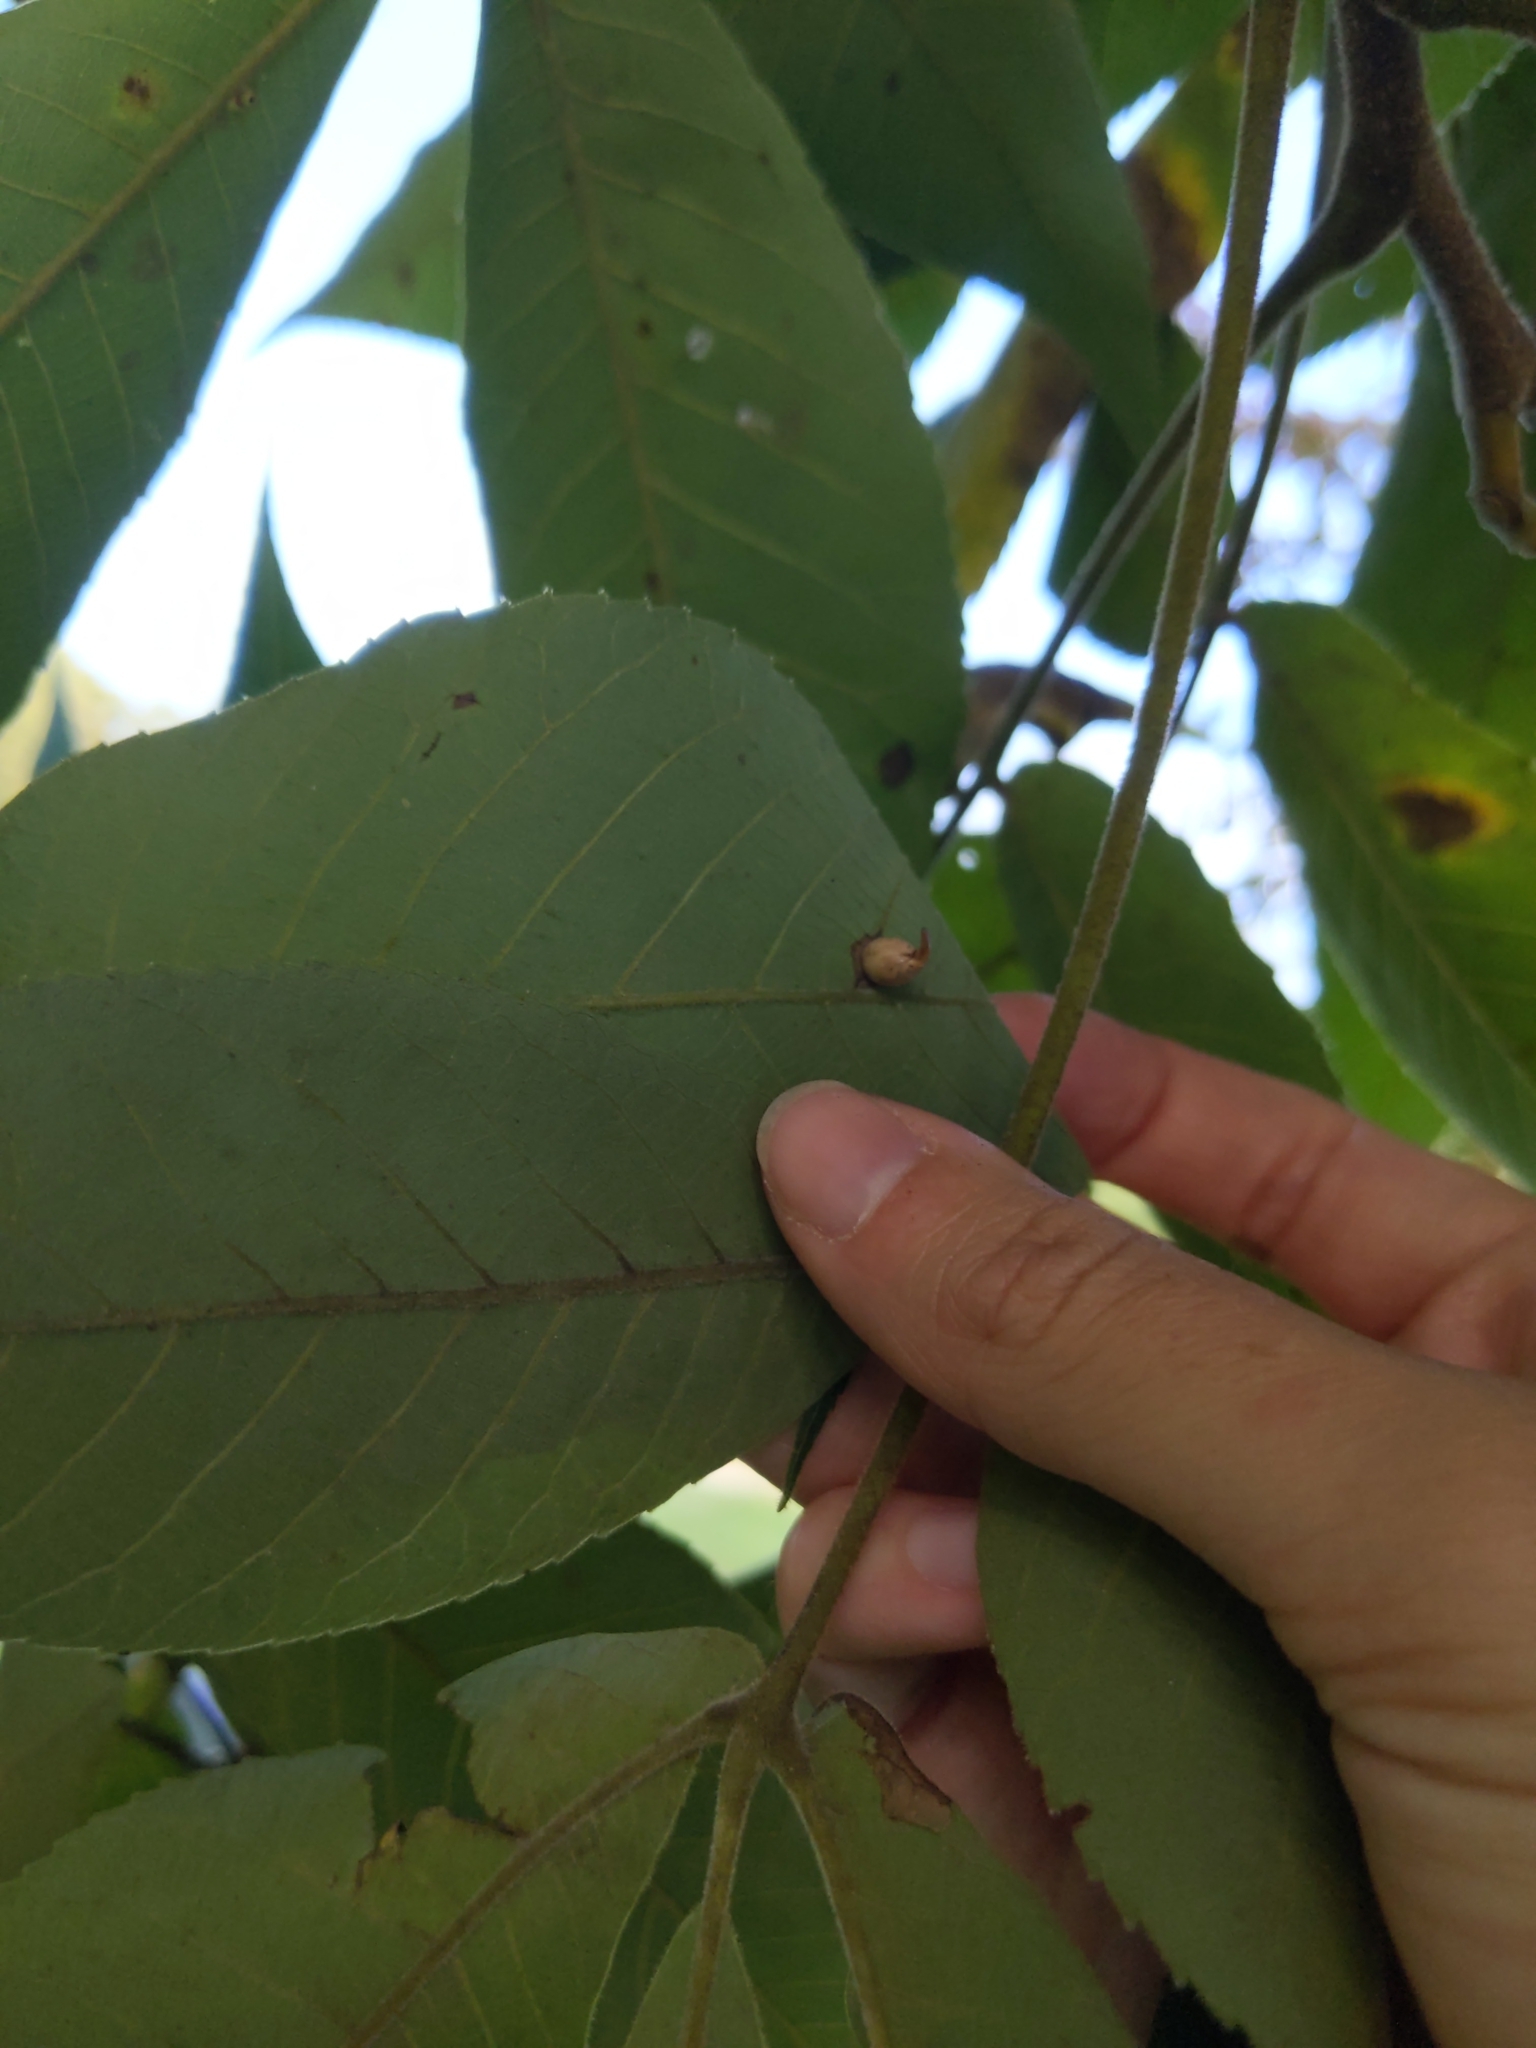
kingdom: Animalia
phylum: Arthropoda
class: Insecta
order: Diptera
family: Cecidomyiidae
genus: Caryomyia
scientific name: Caryomyia caryaecola
